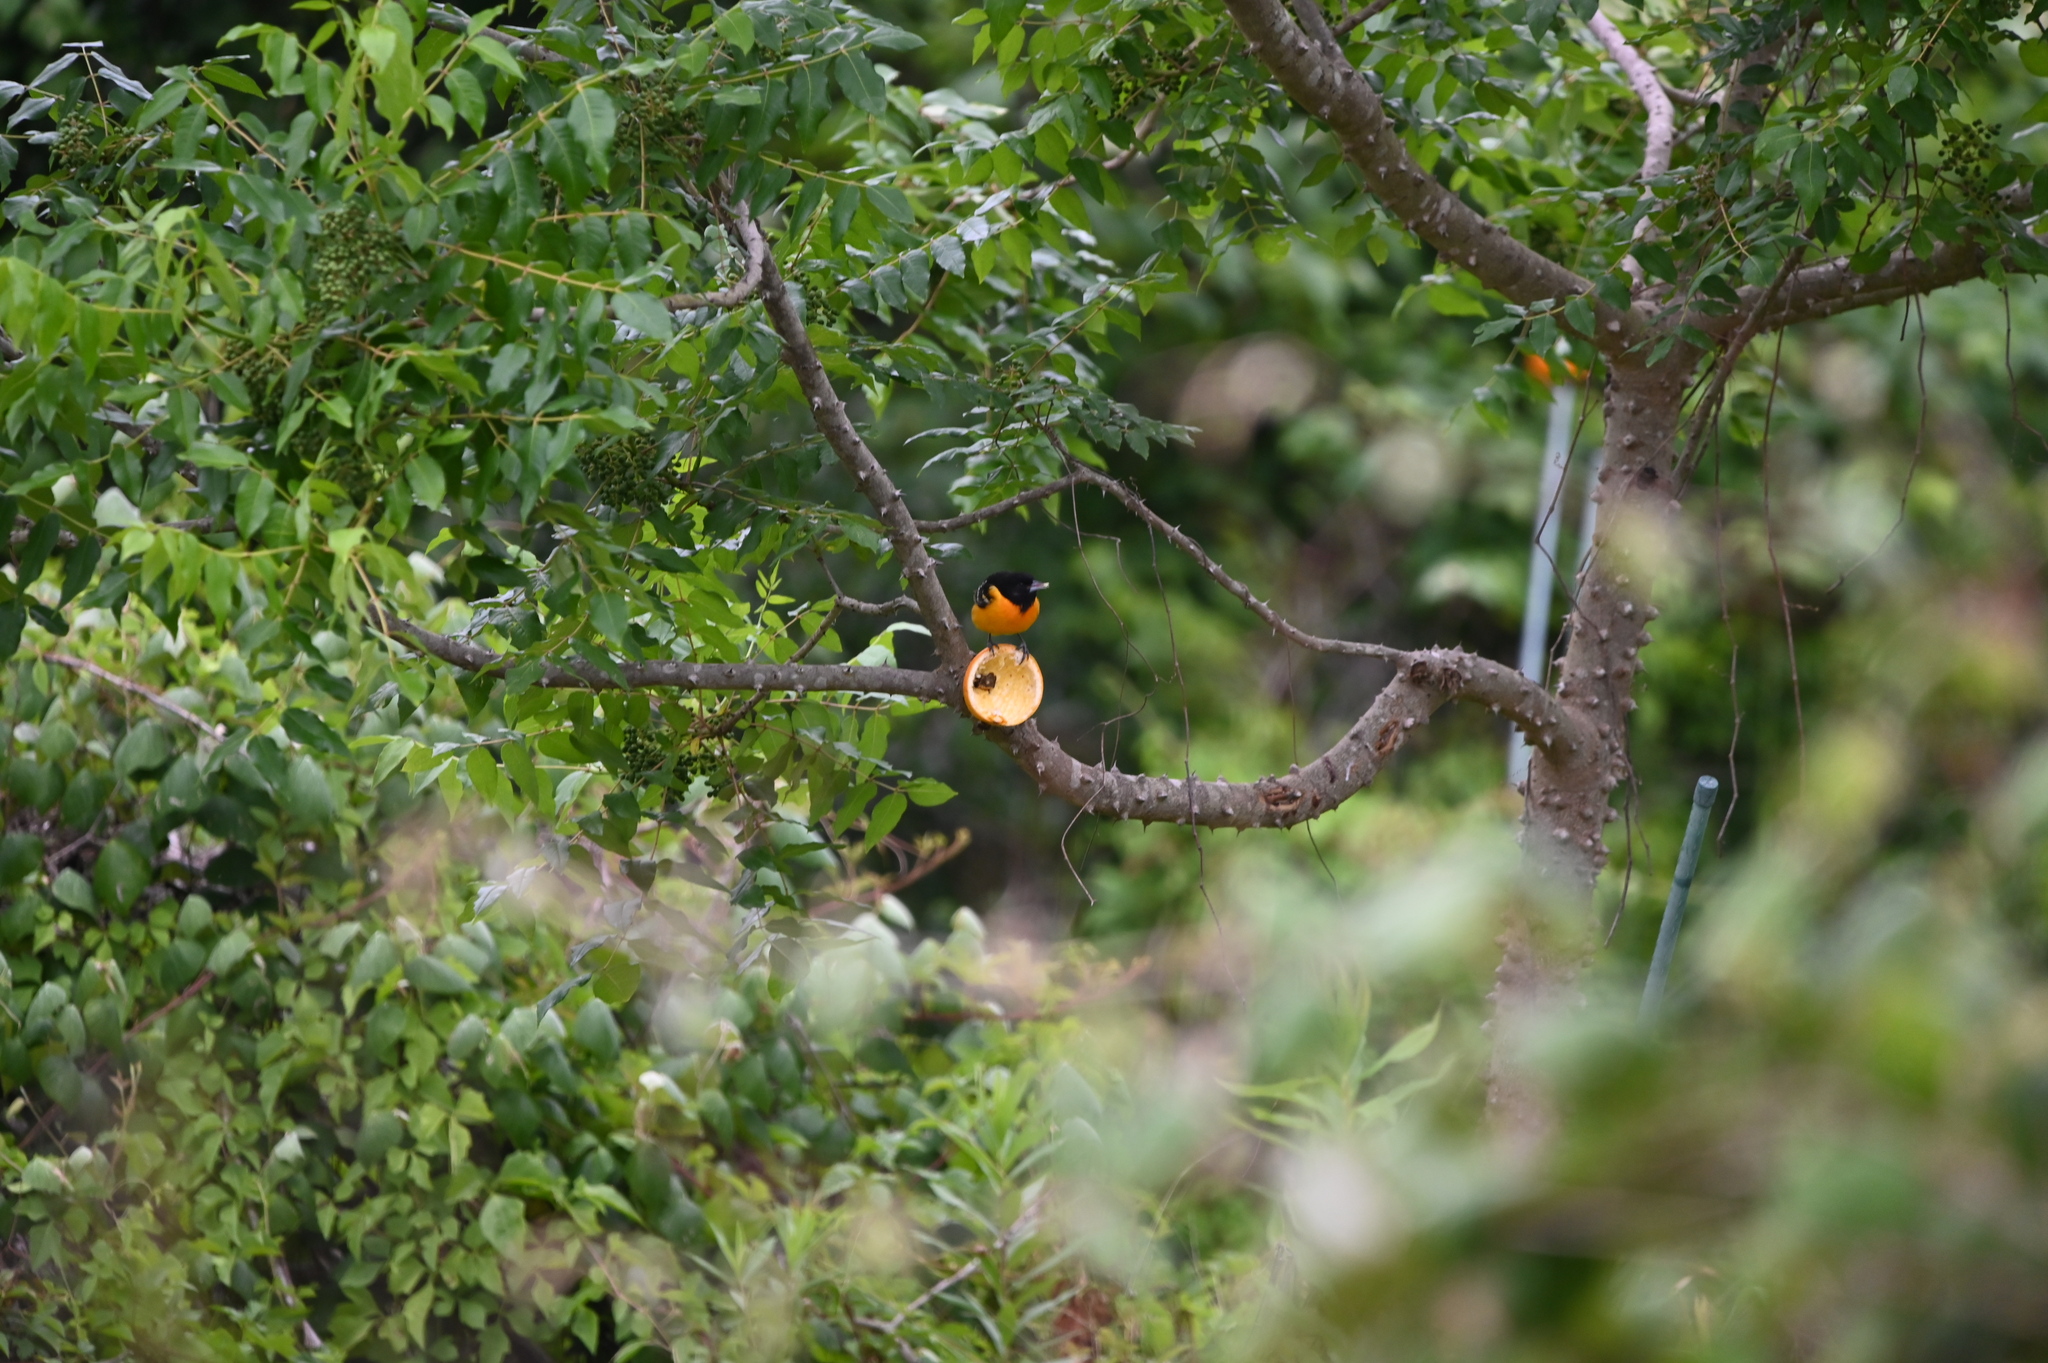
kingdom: Animalia
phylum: Chordata
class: Aves
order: Passeriformes
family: Icteridae
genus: Icterus
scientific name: Icterus galbula
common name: Baltimore oriole
